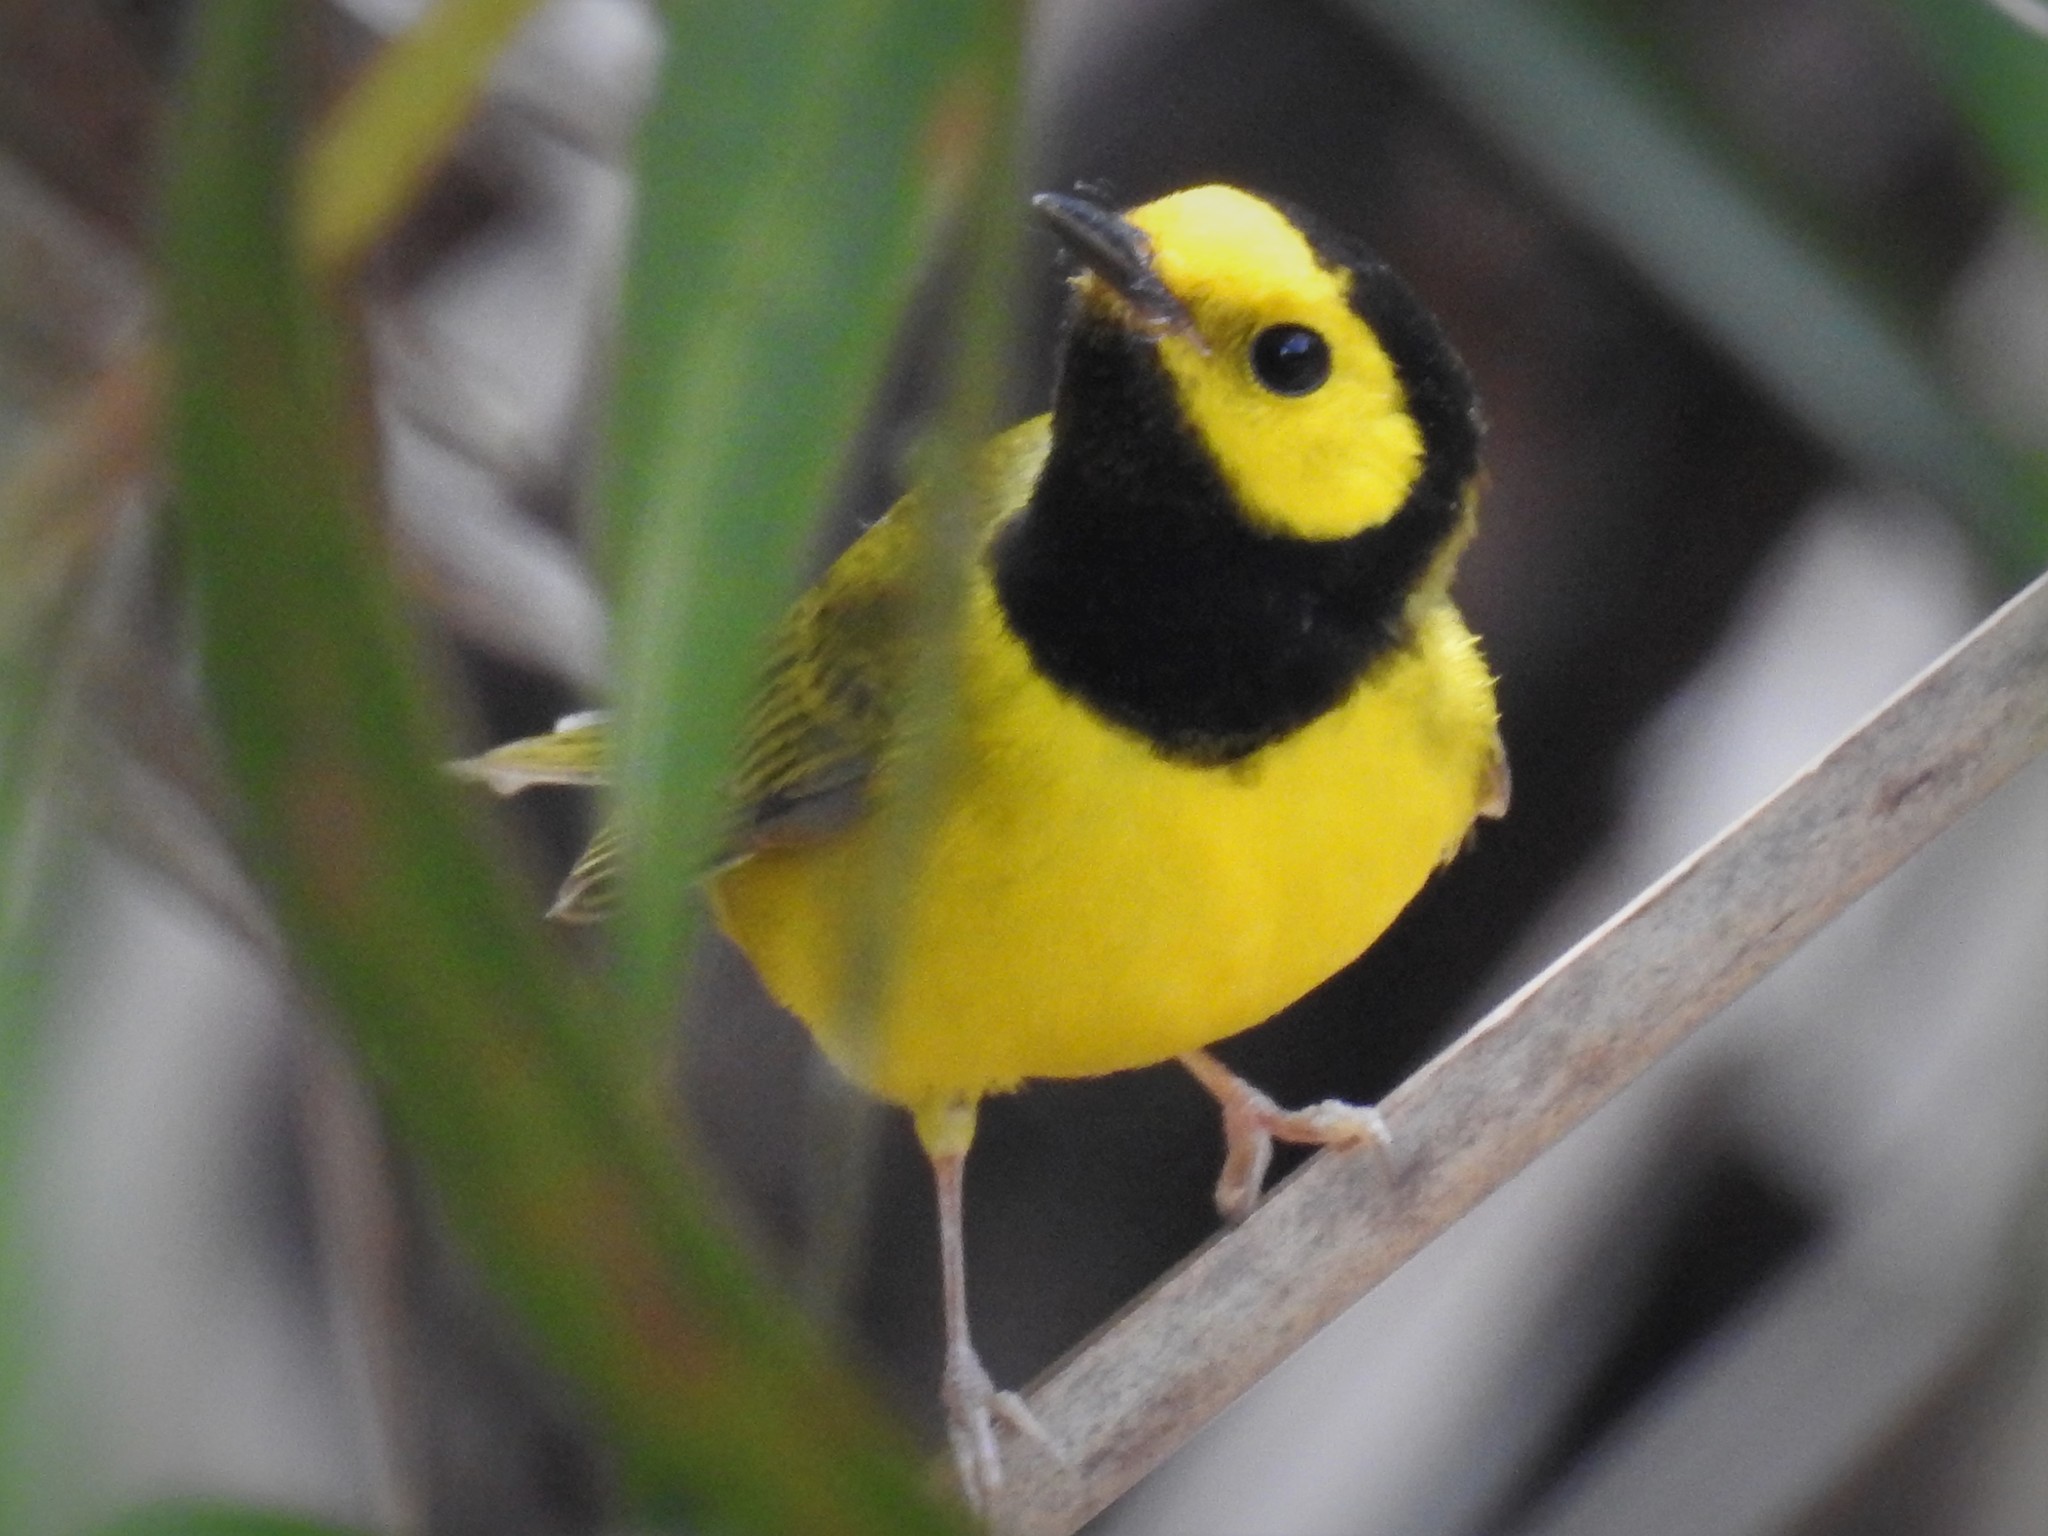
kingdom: Animalia
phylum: Chordata
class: Aves
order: Passeriformes
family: Parulidae
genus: Setophaga
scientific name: Setophaga citrina
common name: Hooded warbler
